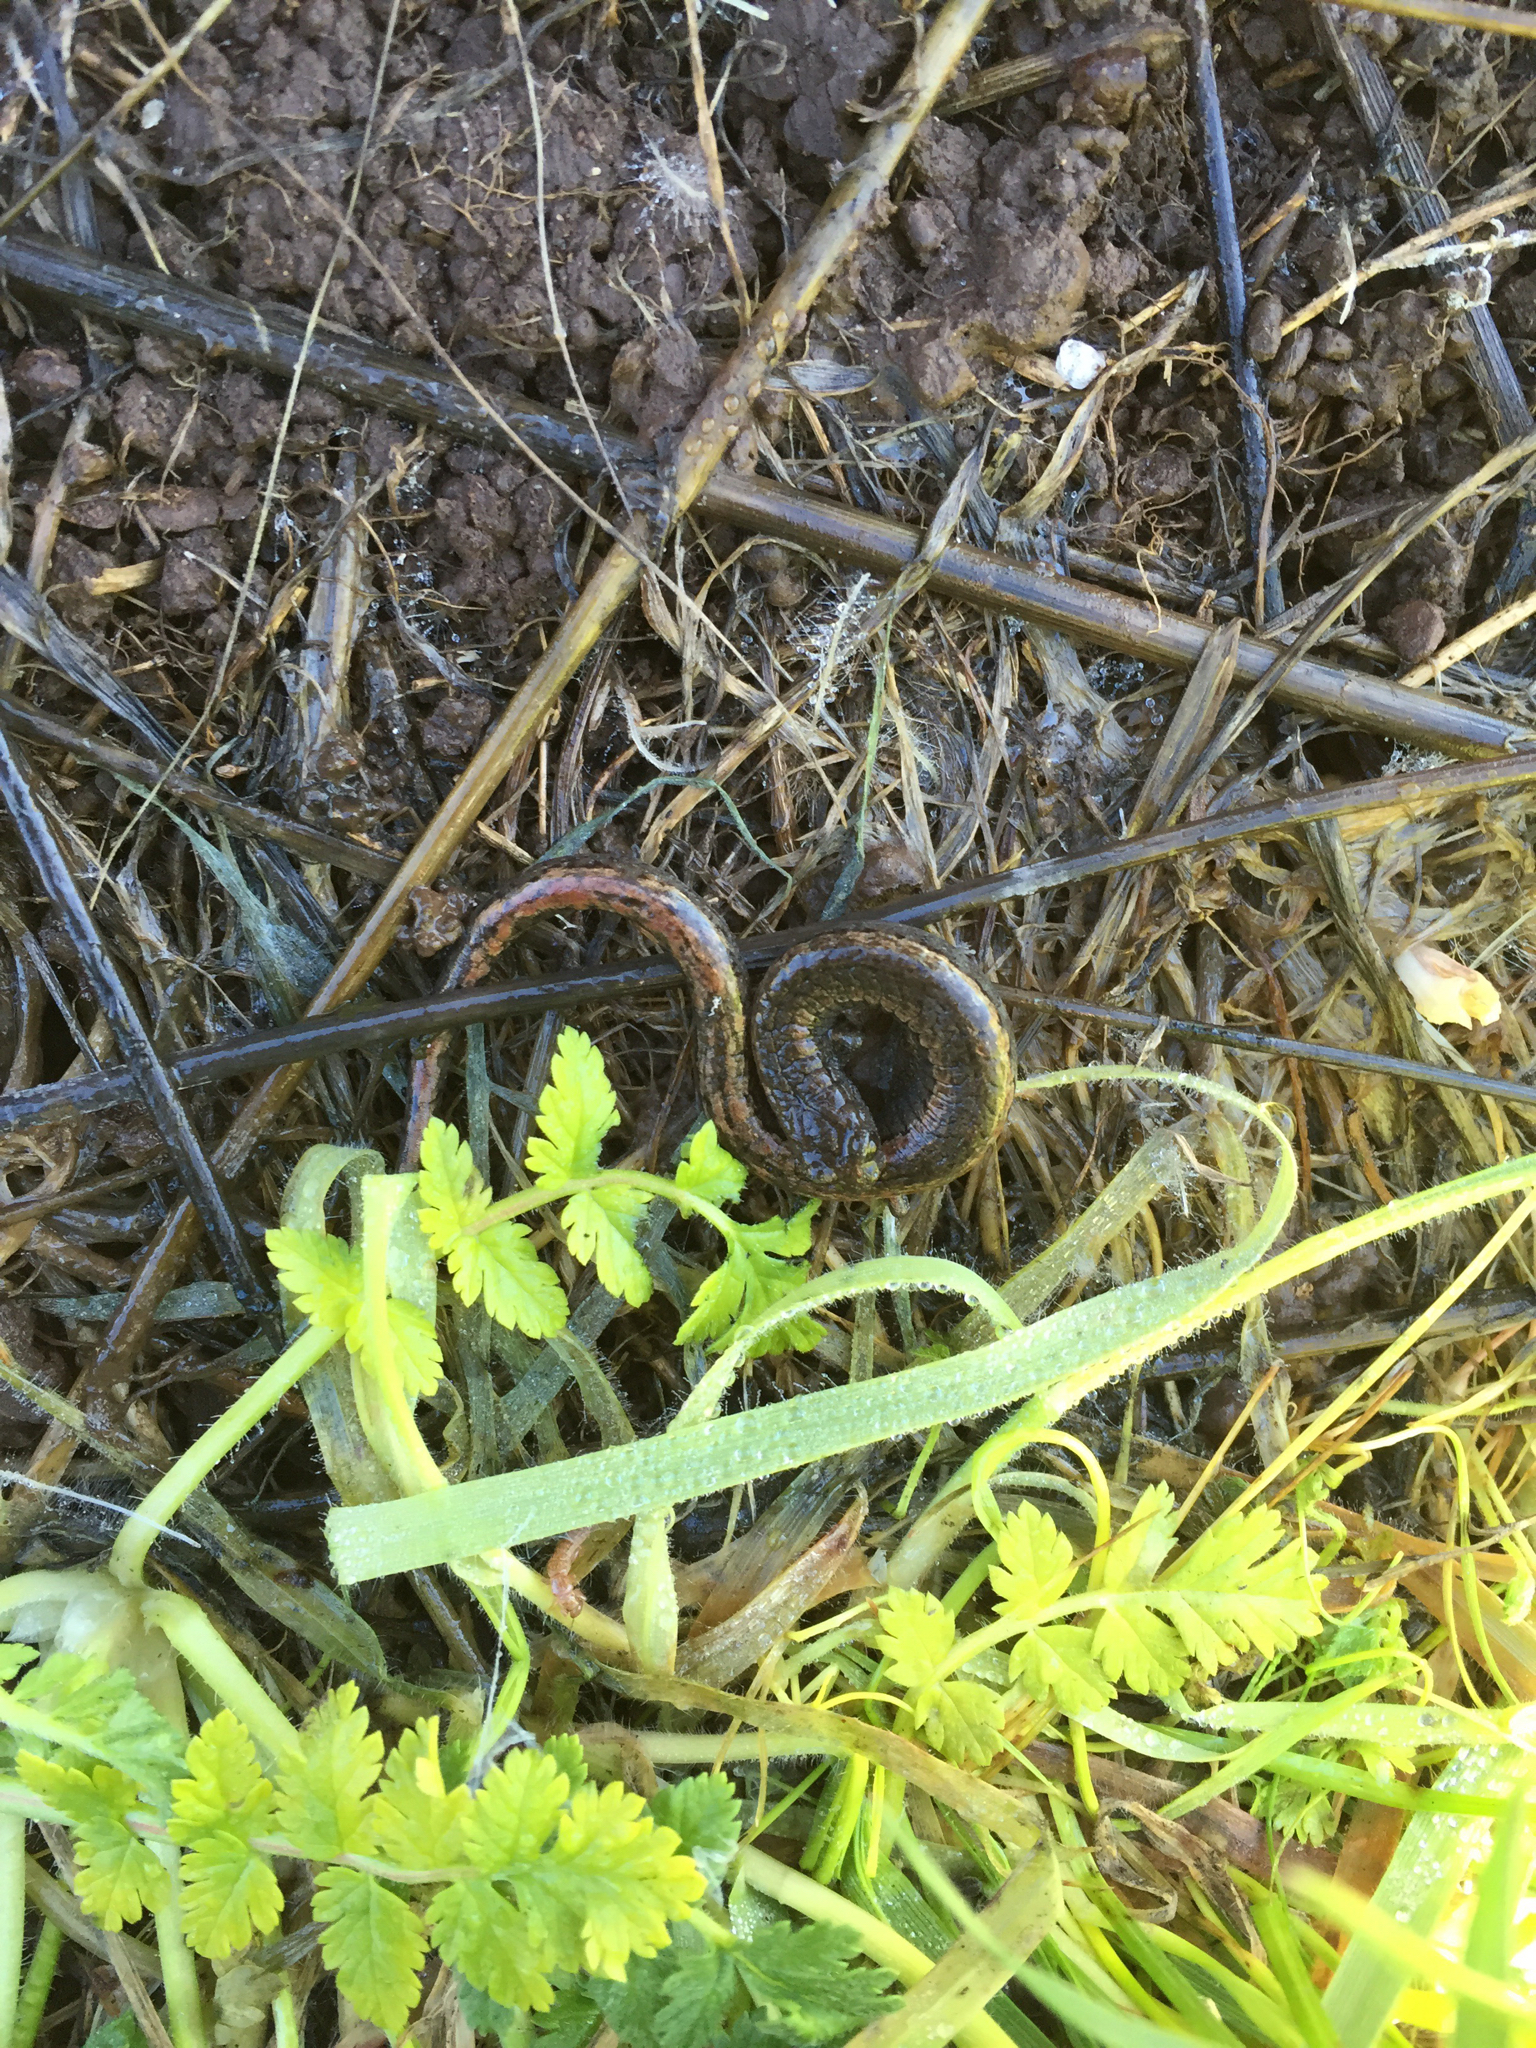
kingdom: Animalia
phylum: Chordata
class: Amphibia
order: Caudata
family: Plethodontidae
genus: Batrachoseps
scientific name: Batrachoseps attenuatus
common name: California slender salamander
